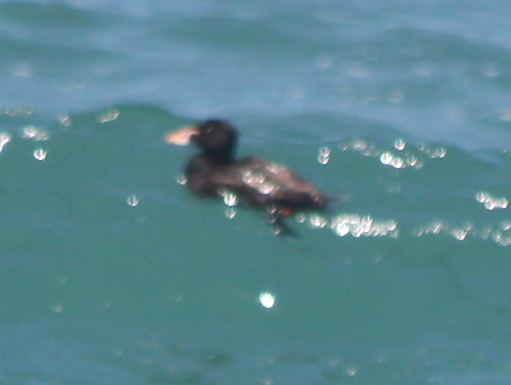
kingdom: Animalia
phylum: Chordata
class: Aves
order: Anseriformes
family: Anatidae
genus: Melanitta
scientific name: Melanitta perspicillata
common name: Surf scoter
